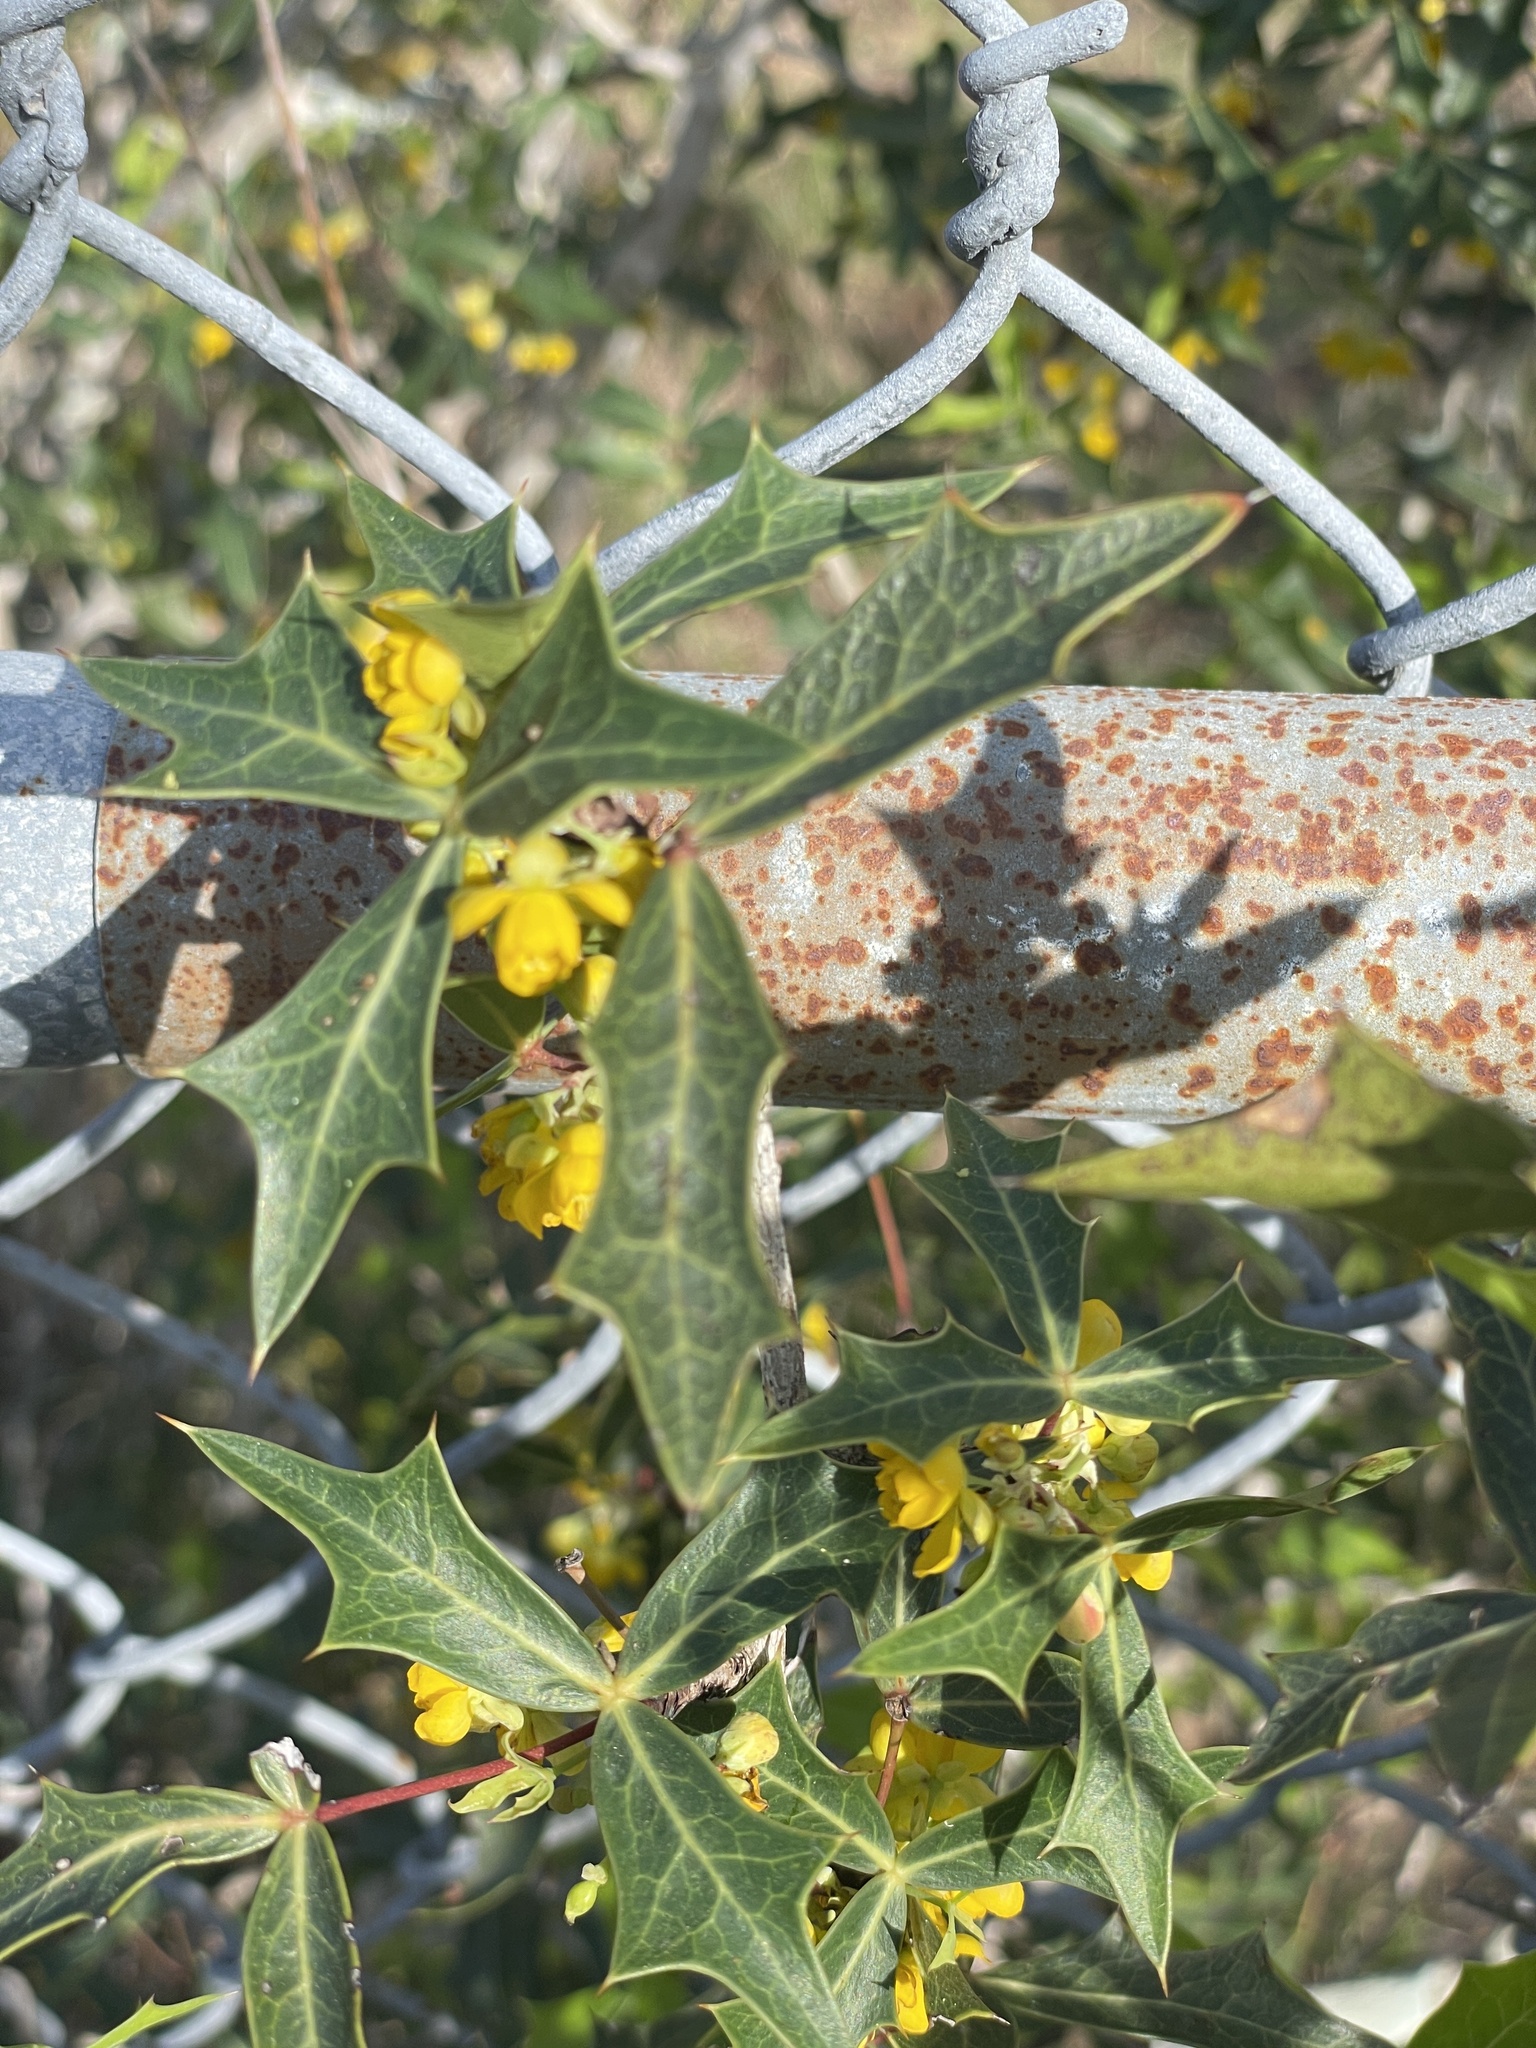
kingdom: Plantae
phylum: Tracheophyta
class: Magnoliopsida
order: Ranunculales
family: Berberidaceae
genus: Alloberberis
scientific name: Alloberberis trifoliolata
